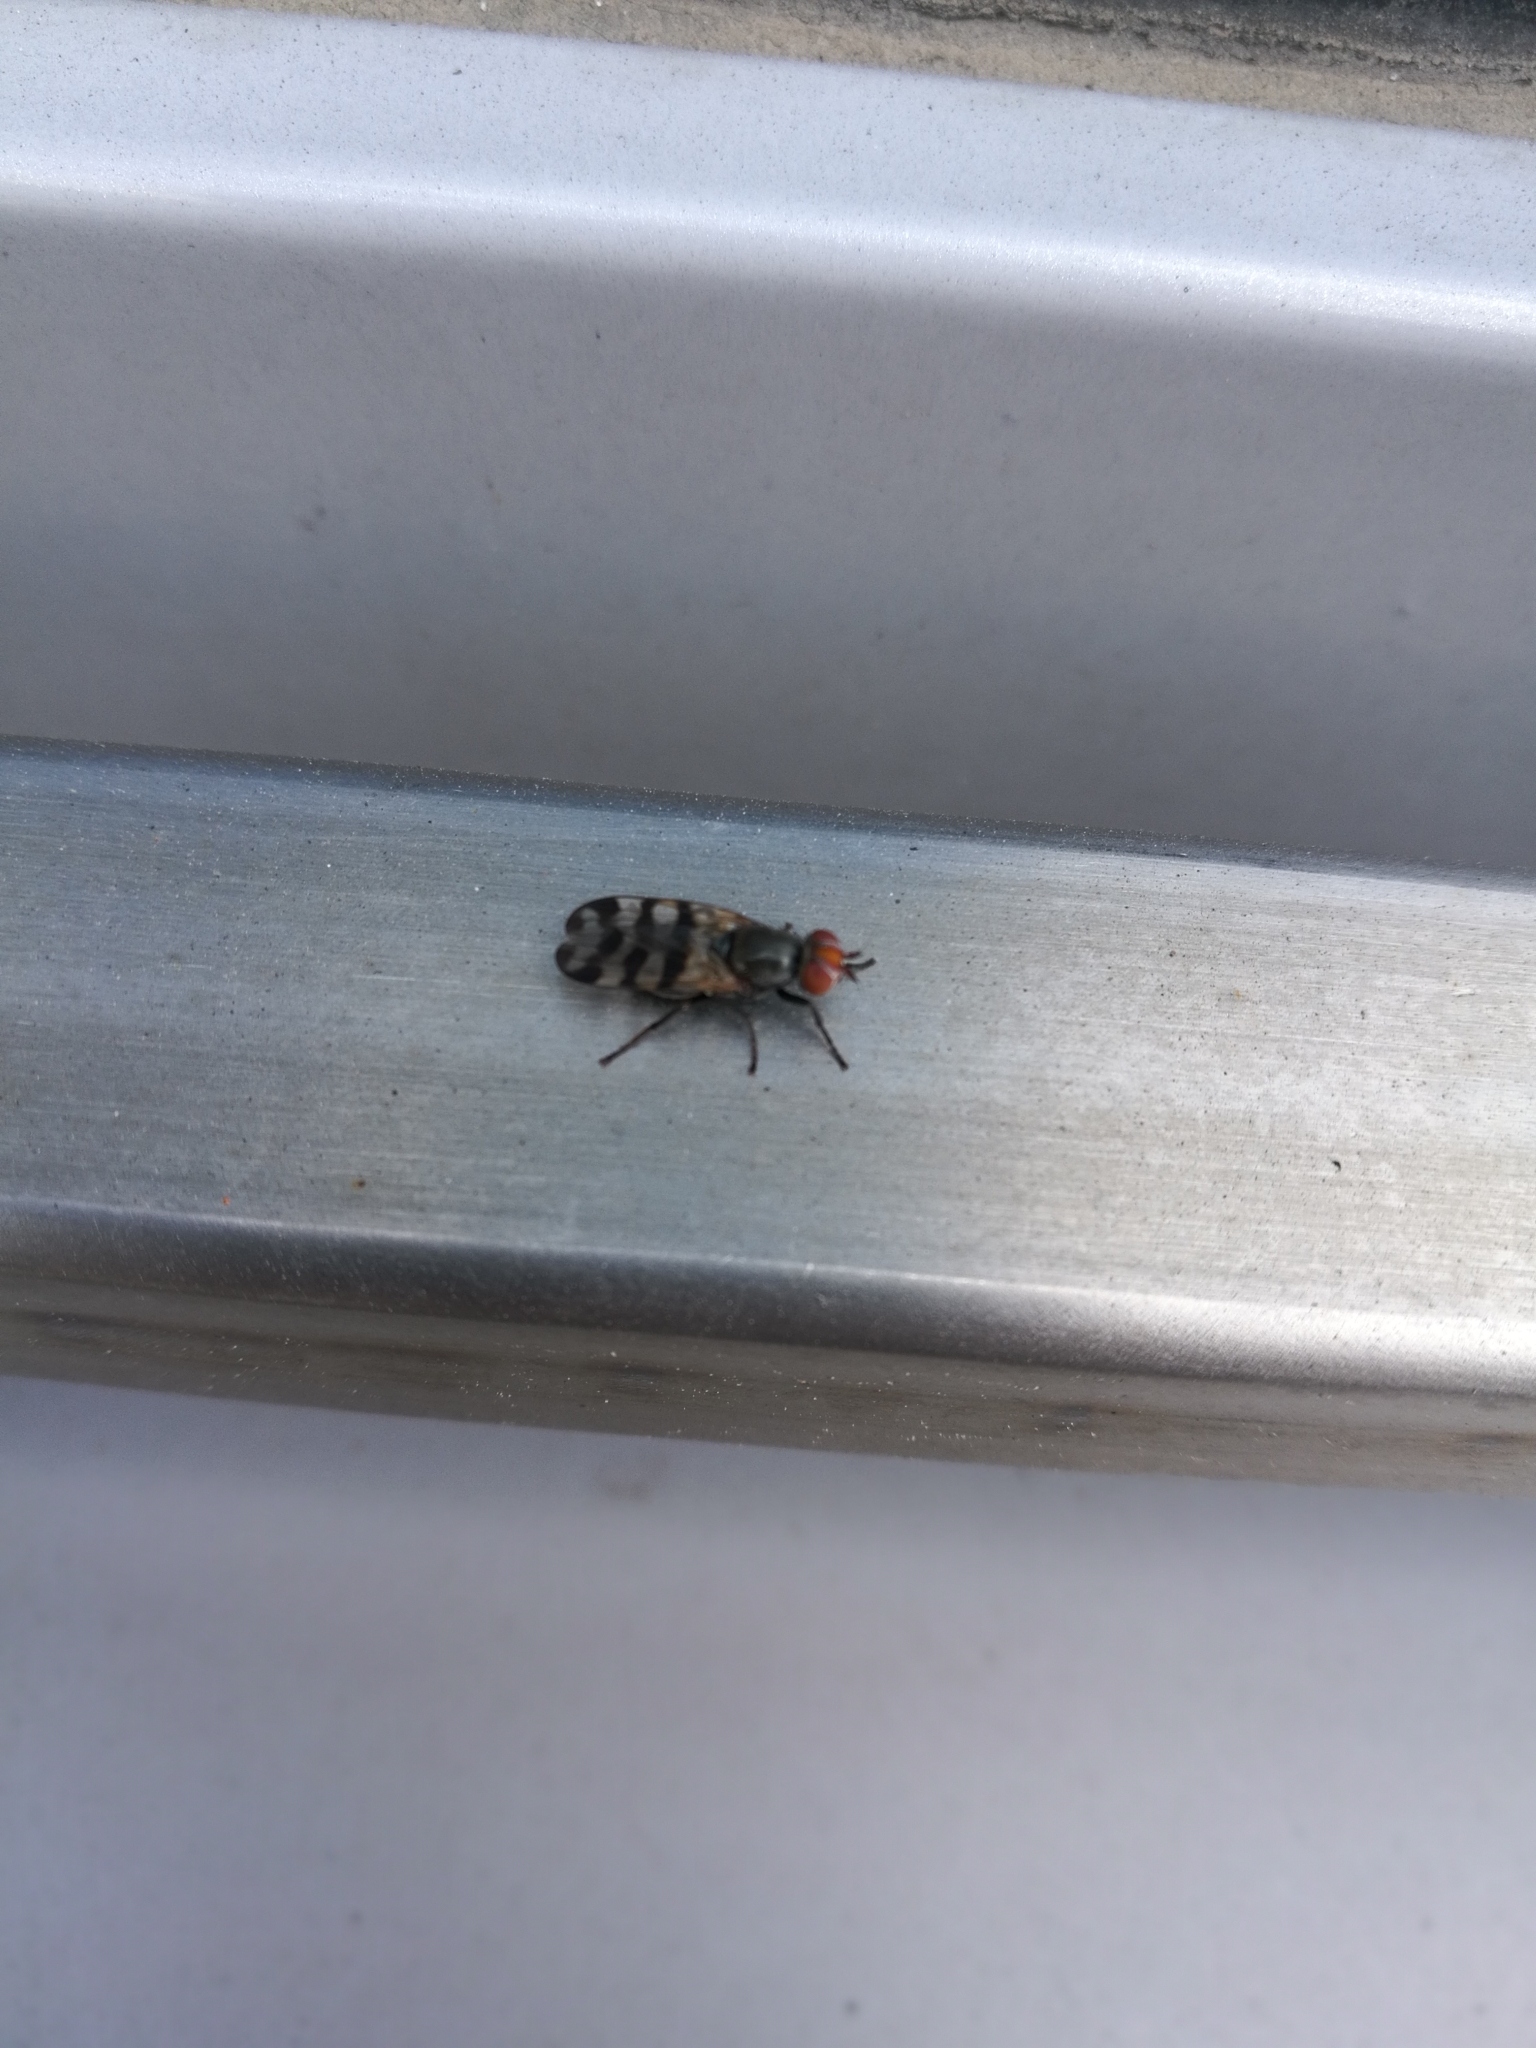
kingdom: Animalia
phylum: Arthropoda
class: Insecta
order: Diptera
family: Ulidiidae
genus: Ceroxys
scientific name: Ceroxys urticae
